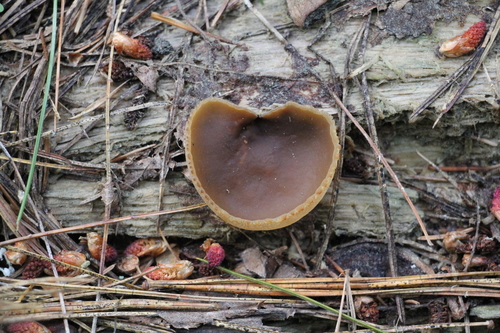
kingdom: Fungi
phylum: Ascomycota
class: Pezizomycetes
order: Pezizales
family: Pezizaceae
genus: Peziza
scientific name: Peziza varia
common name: Layered cup
